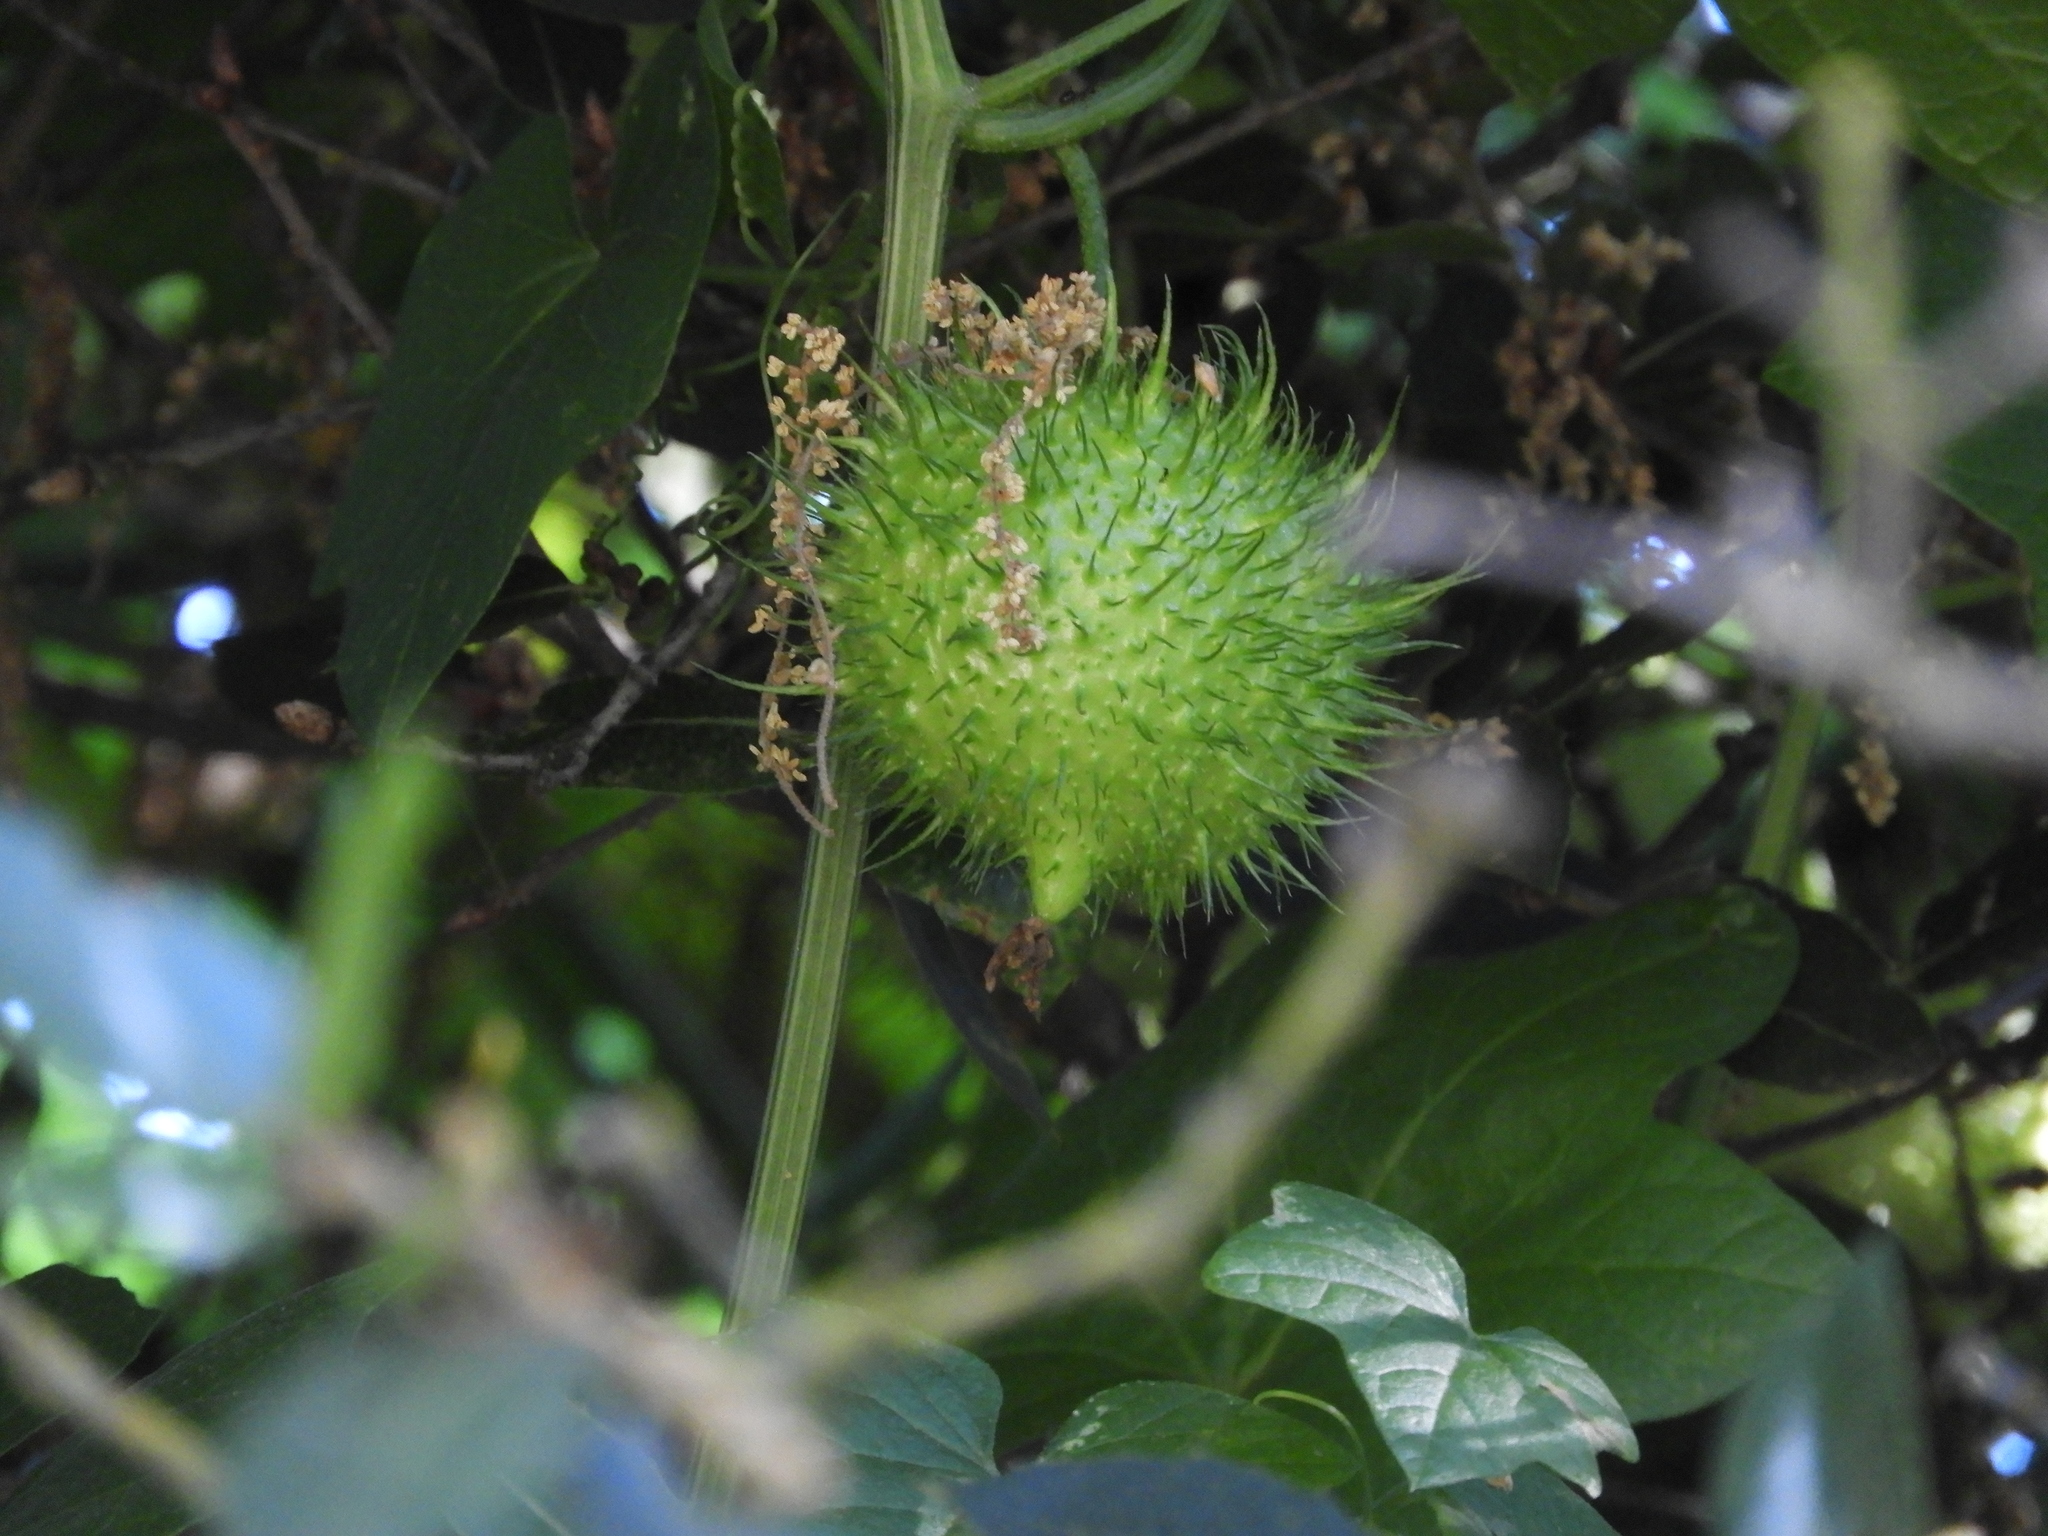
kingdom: Plantae
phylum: Tracheophyta
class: Magnoliopsida
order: Cucurbitales
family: Cucurbitaceae
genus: Marah
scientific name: Marah fabacea
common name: California manroot
